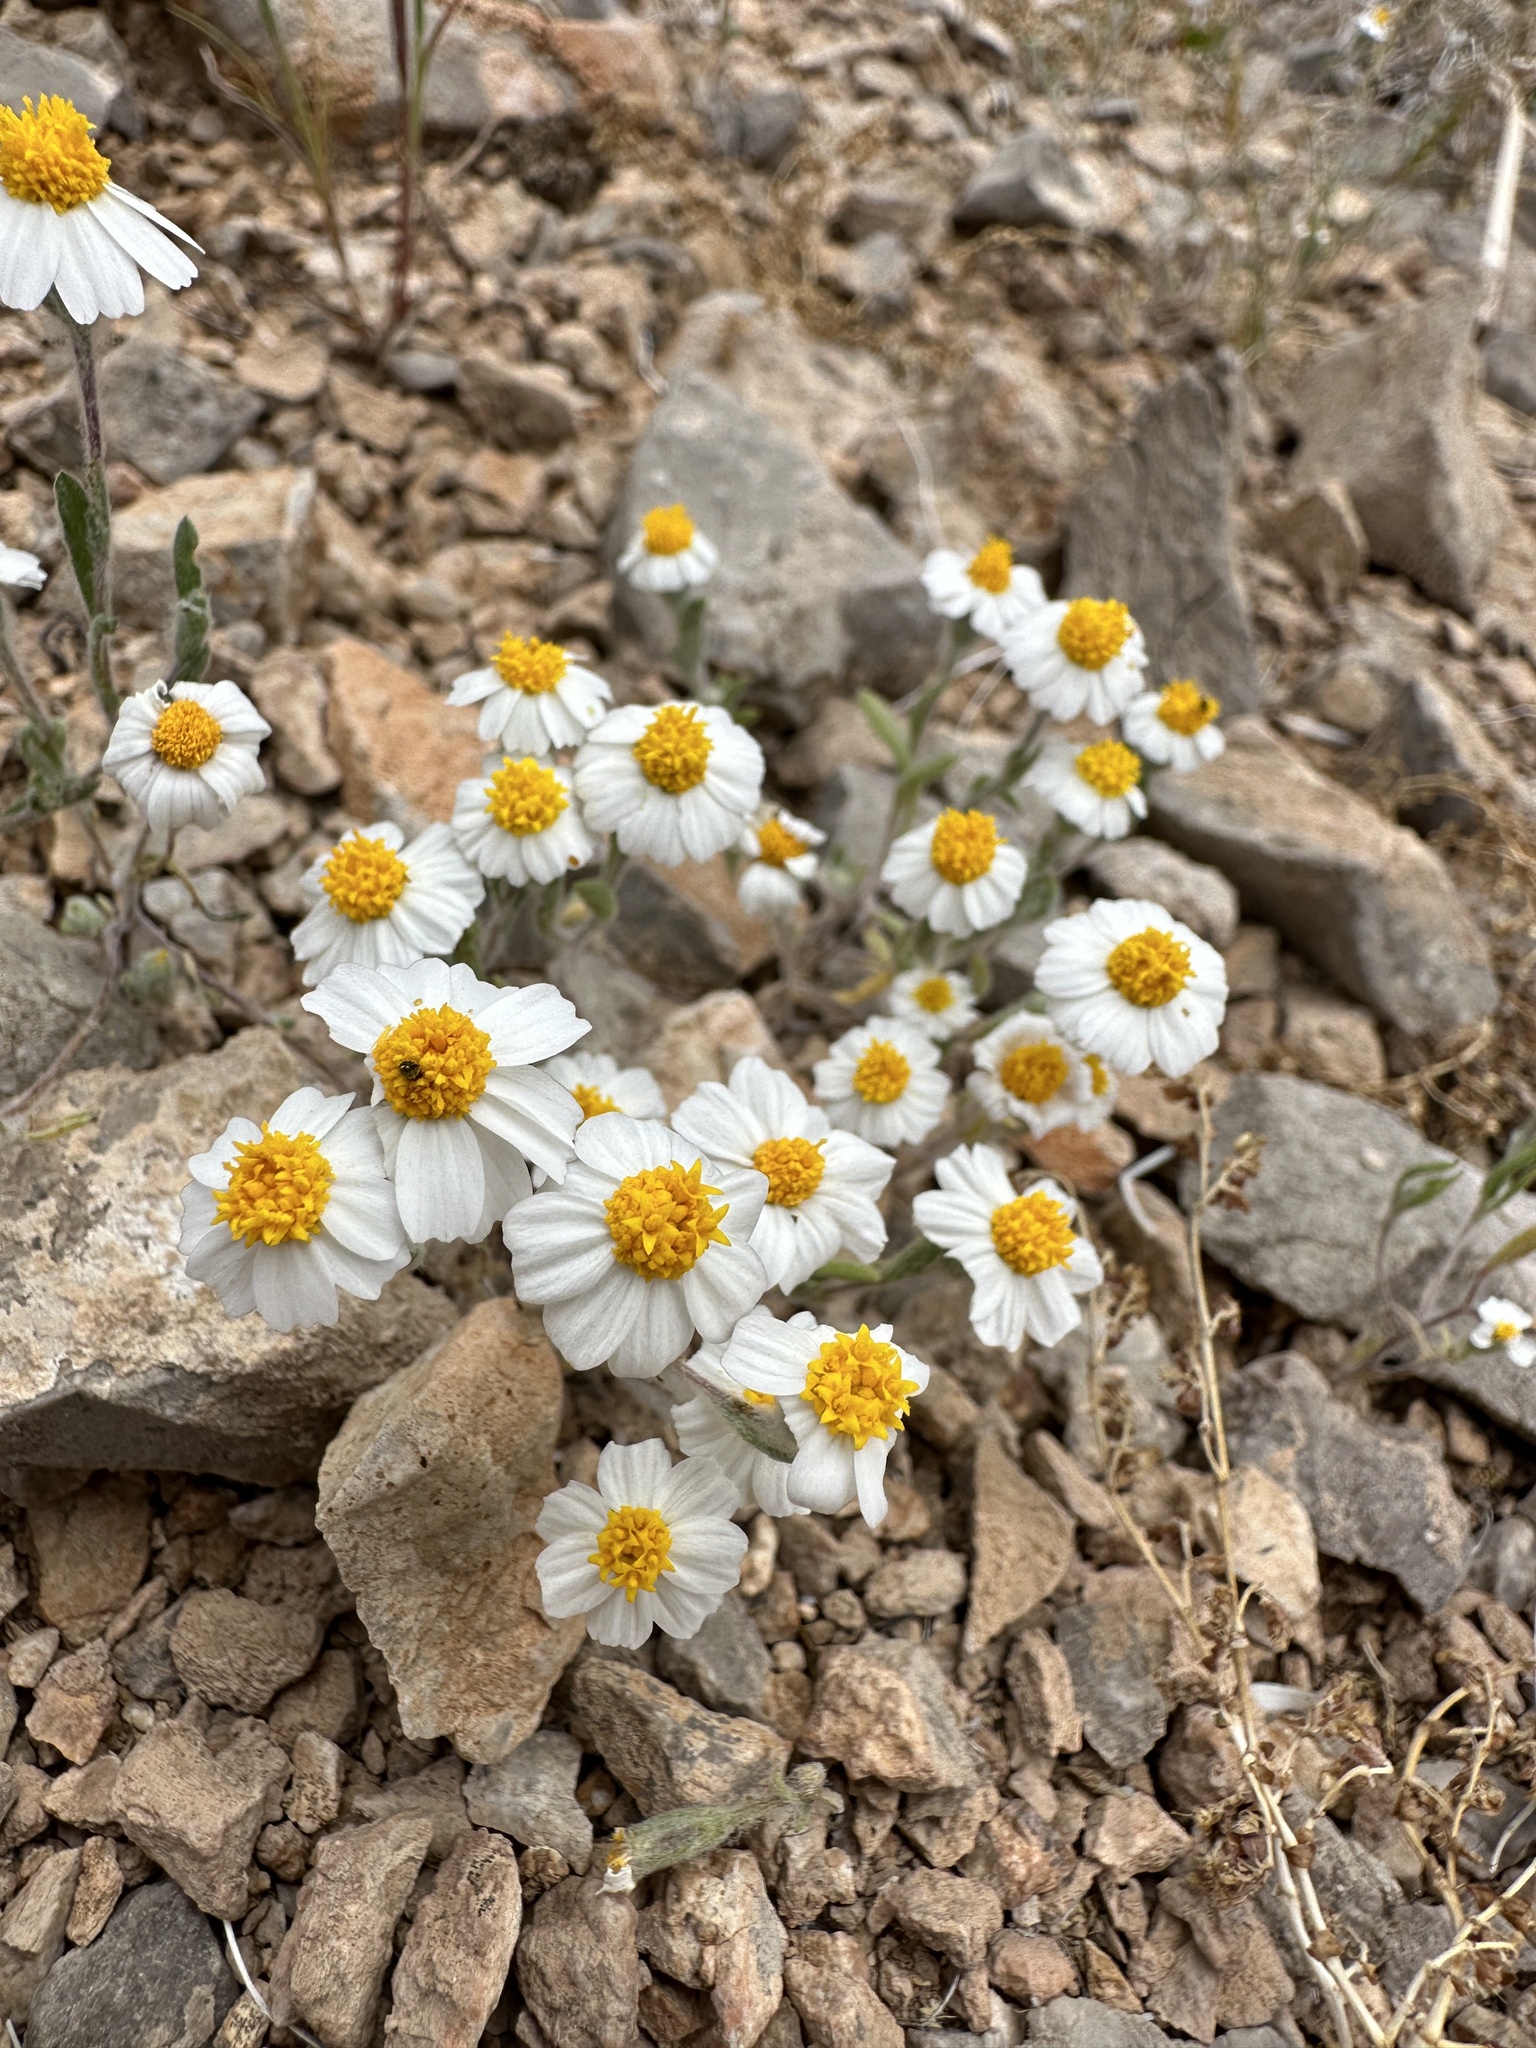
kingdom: Plantae
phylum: Tracheophyta
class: Magnoliopsida
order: Asterales
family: Asteraceae
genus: Eriophyllum
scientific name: Eriophyllum lanosum
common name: White easter-bonnets
